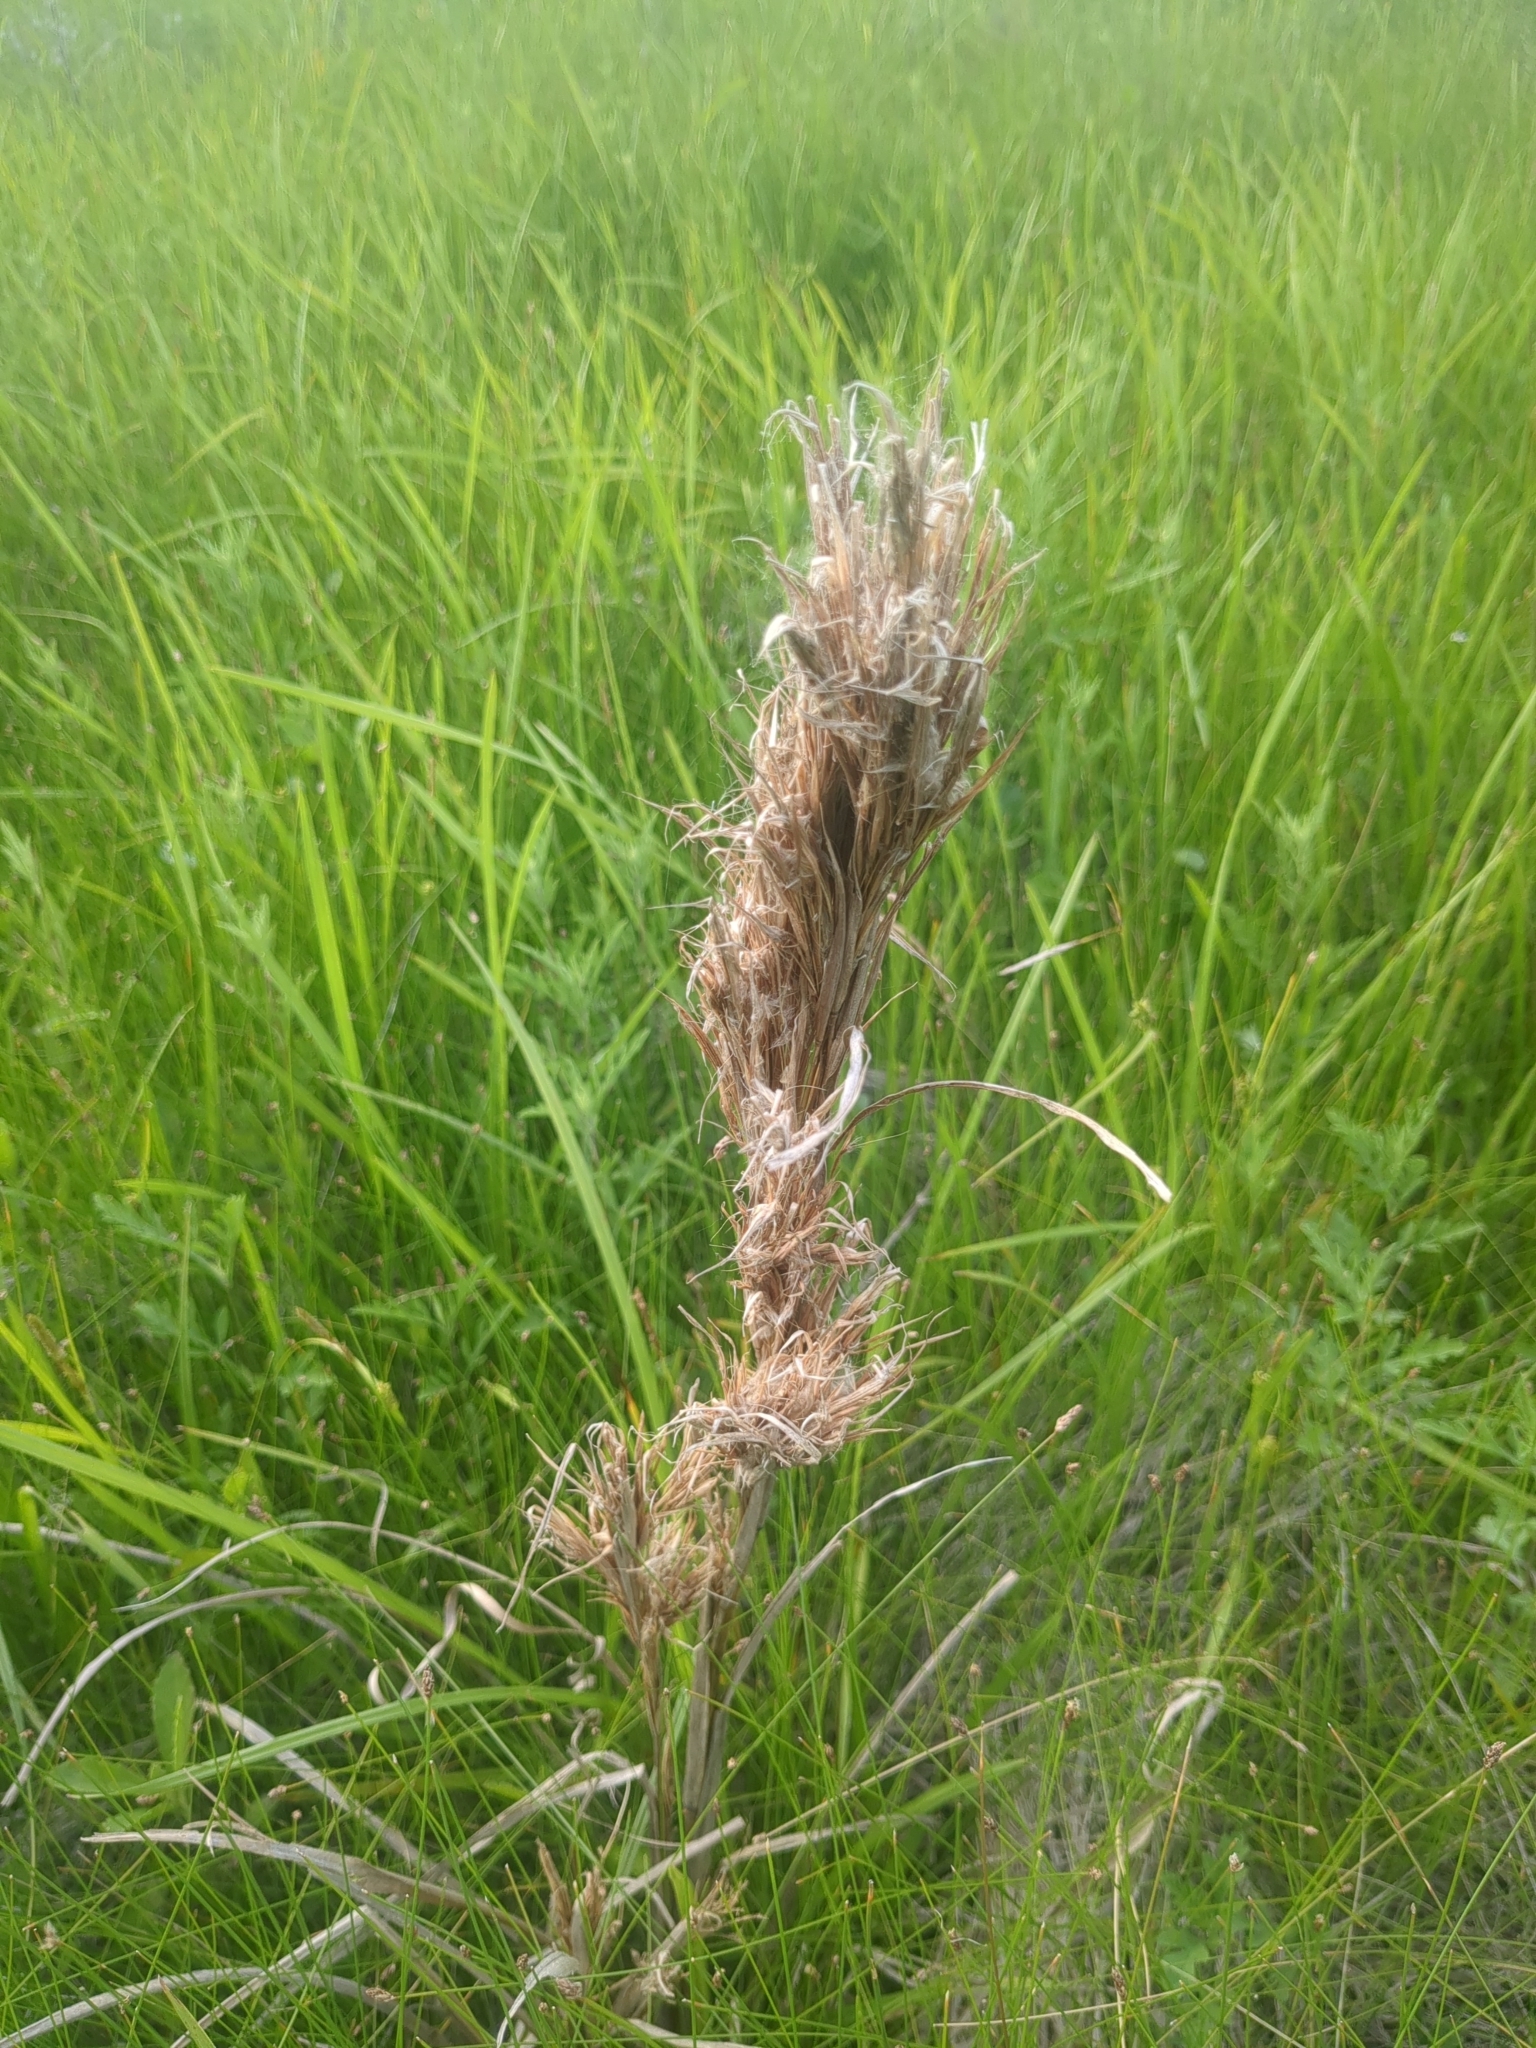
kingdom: Plantae
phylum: Tracheophyta
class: Liliopsida
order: Poales
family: Poaceae
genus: Andropogon
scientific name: Andropogon tenuispatheus
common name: Bushy bluestem
